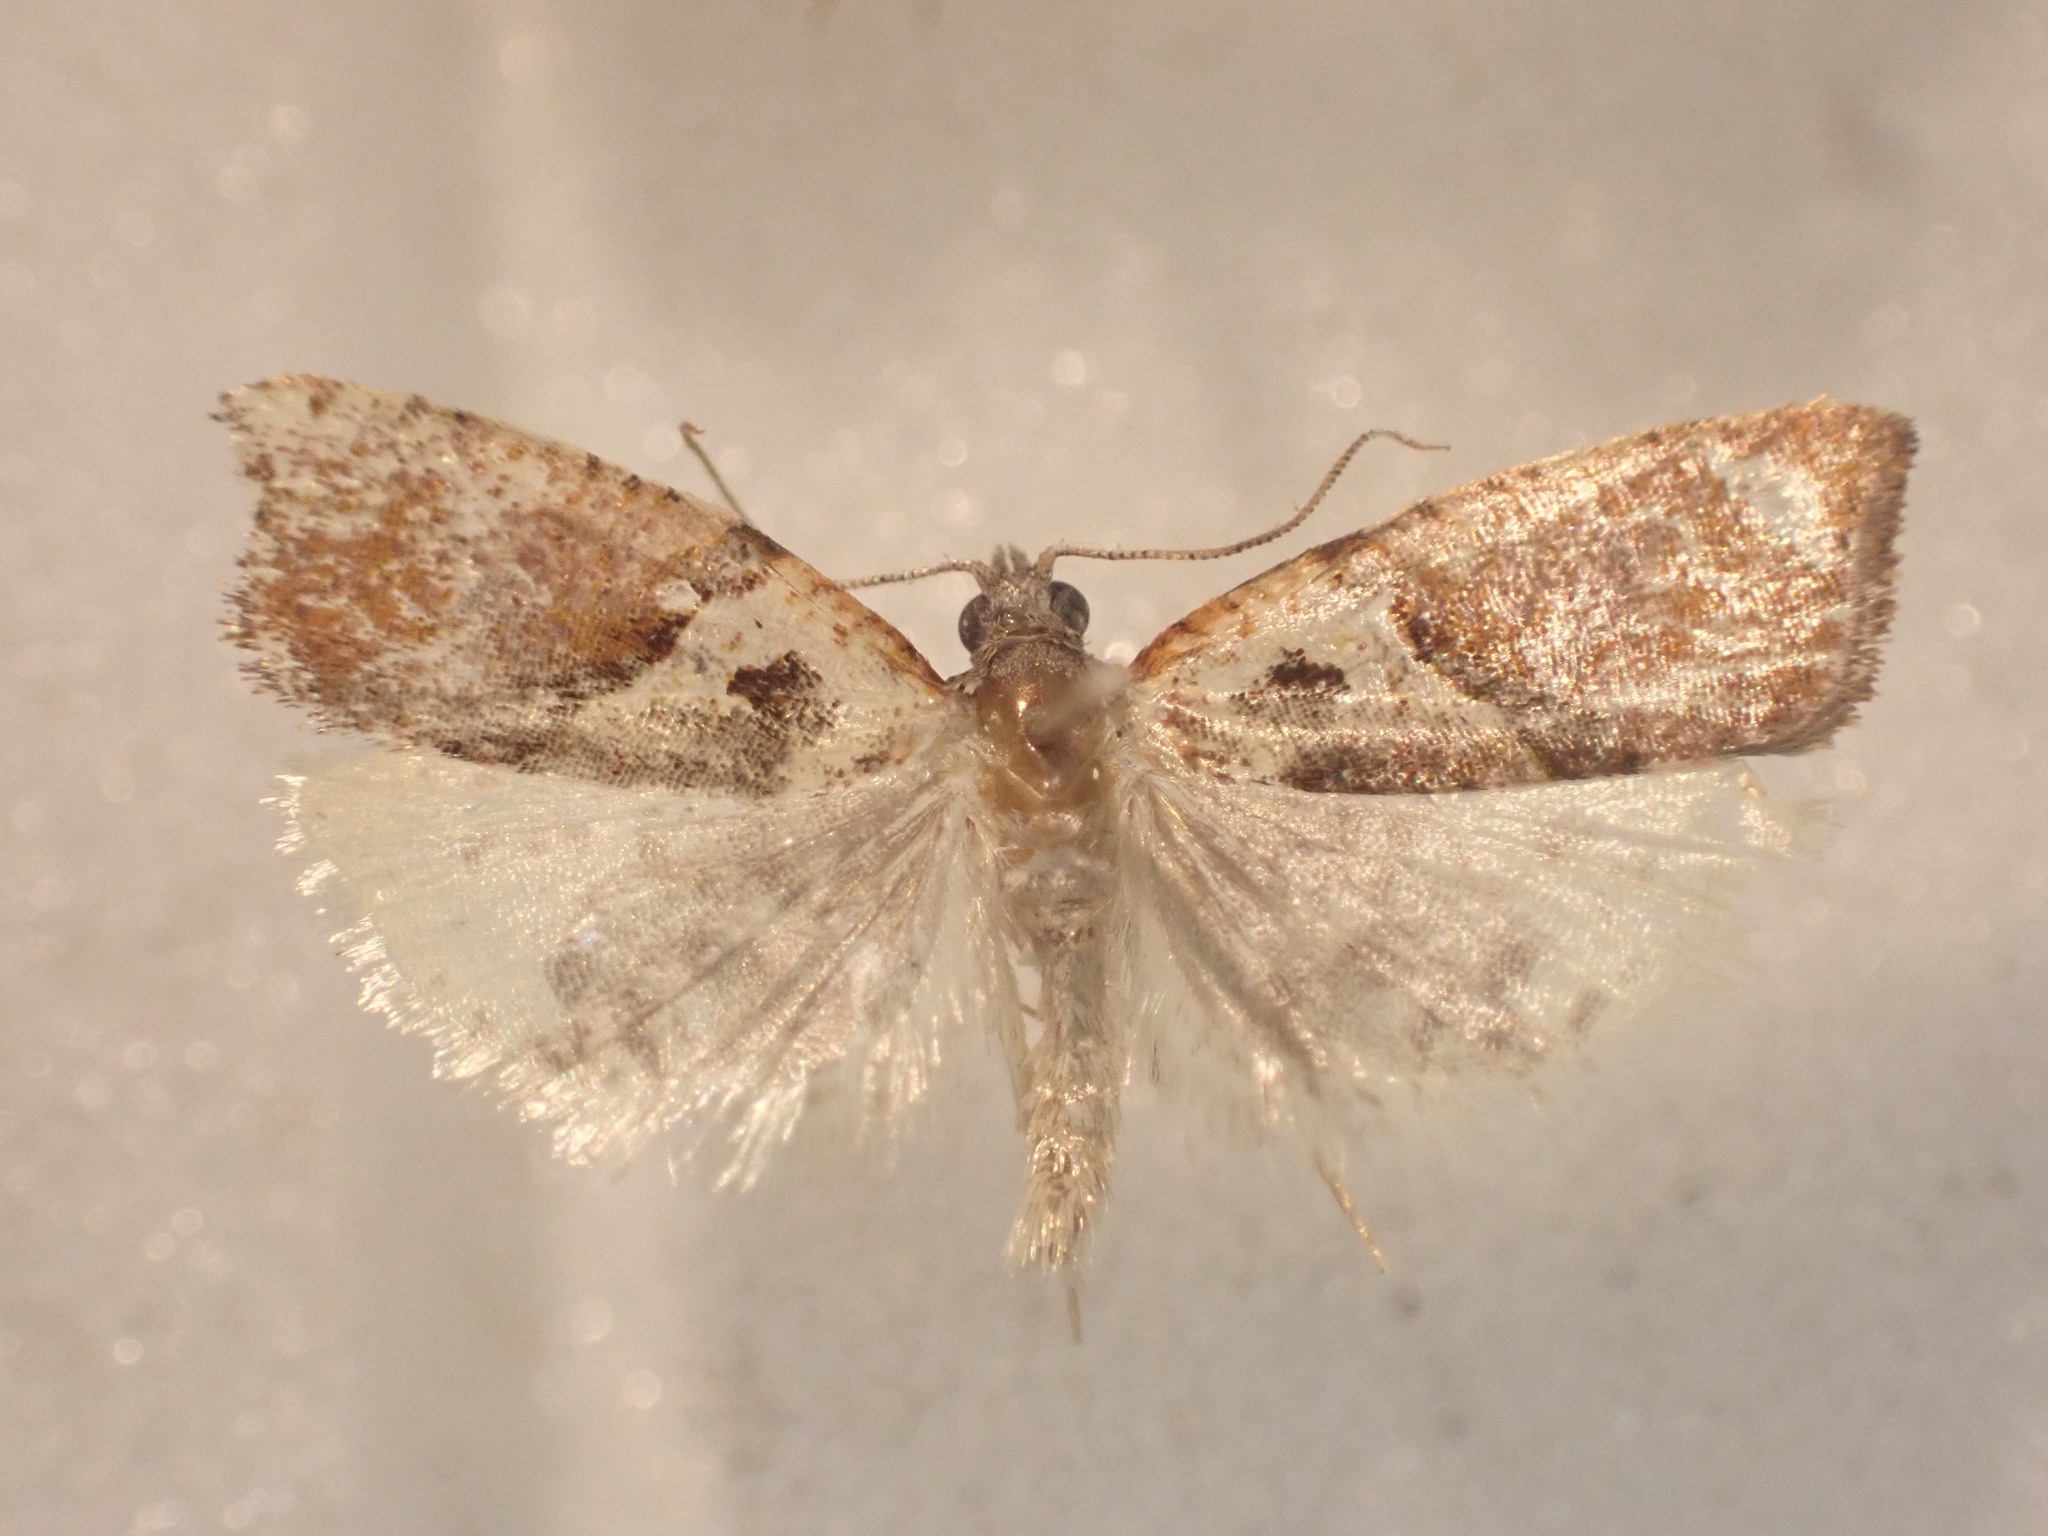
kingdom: Animalia
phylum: Arthropoda
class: Insecta
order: Lepidoptera
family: Tortricidae
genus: Pyrgotis
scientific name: Pyrgotis plagiatana
